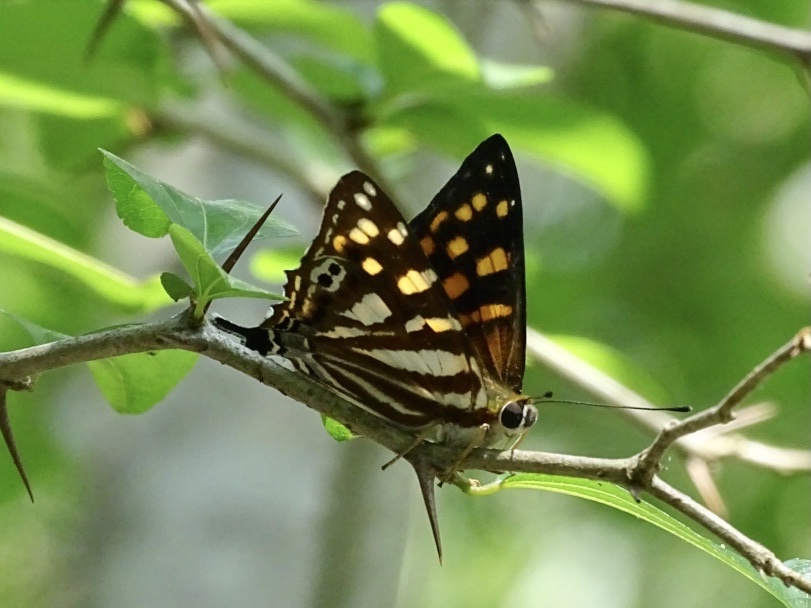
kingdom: Animalia
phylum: Arthropoda
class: Insecta
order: Lepidoptera
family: Lycaenidae
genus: Dodona
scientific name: Dodona egeon
